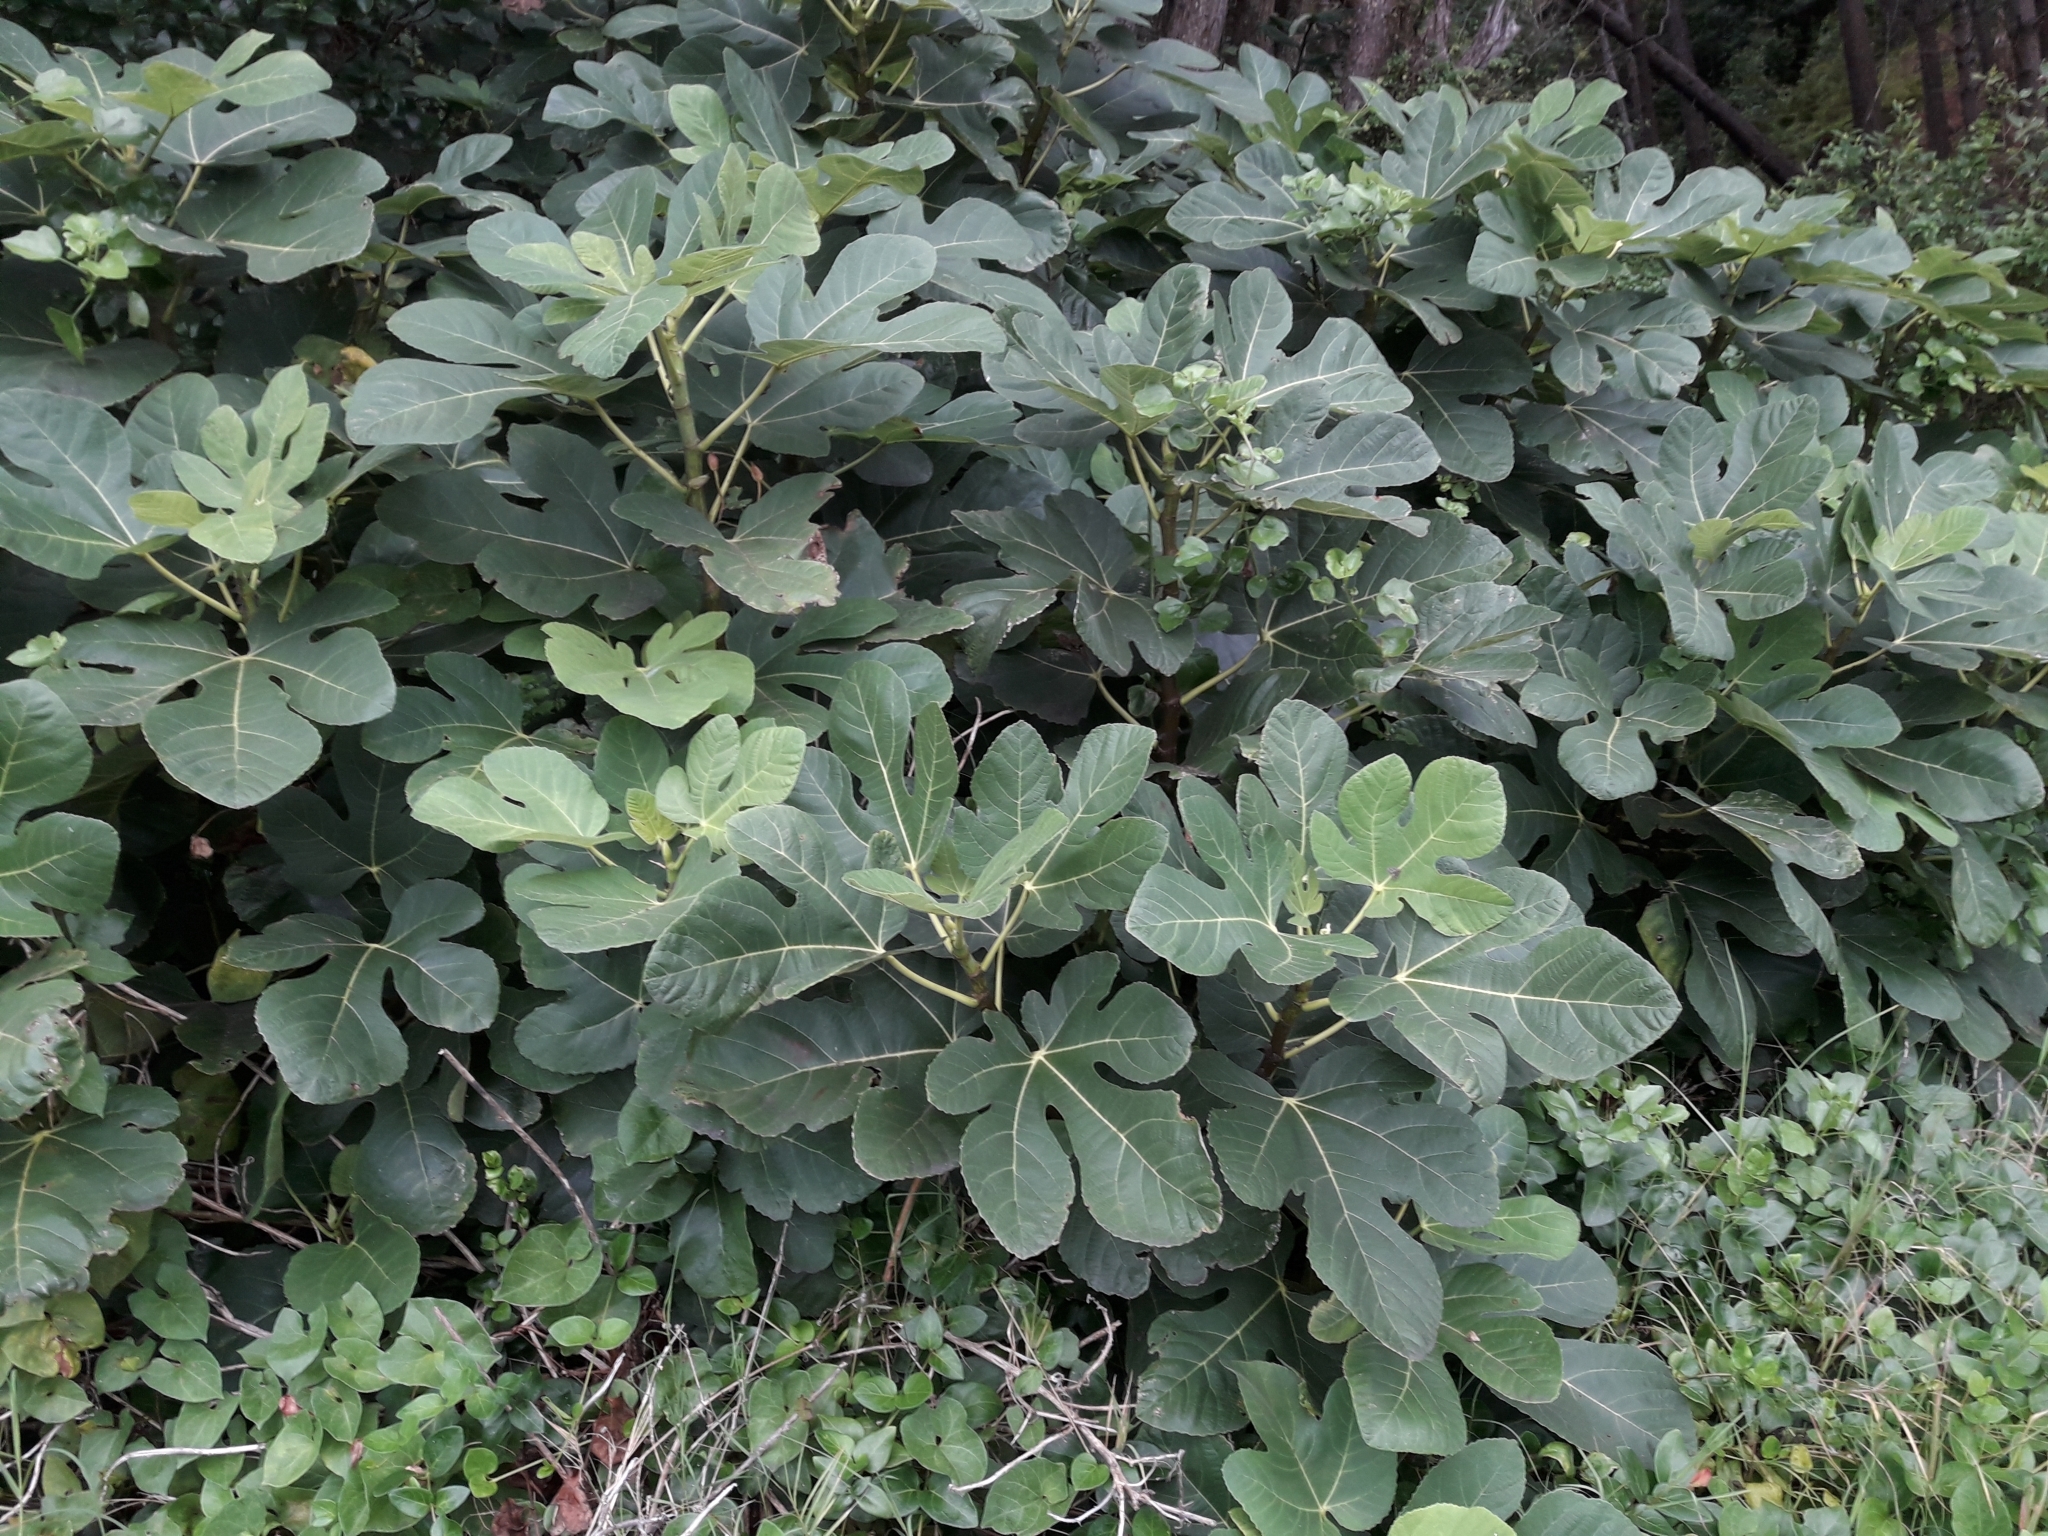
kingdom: Plantae
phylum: Tracheophyta
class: Magnoliopsida
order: Rosales
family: Moraceae
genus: Ficus
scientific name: Ficus carica
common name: Fig
